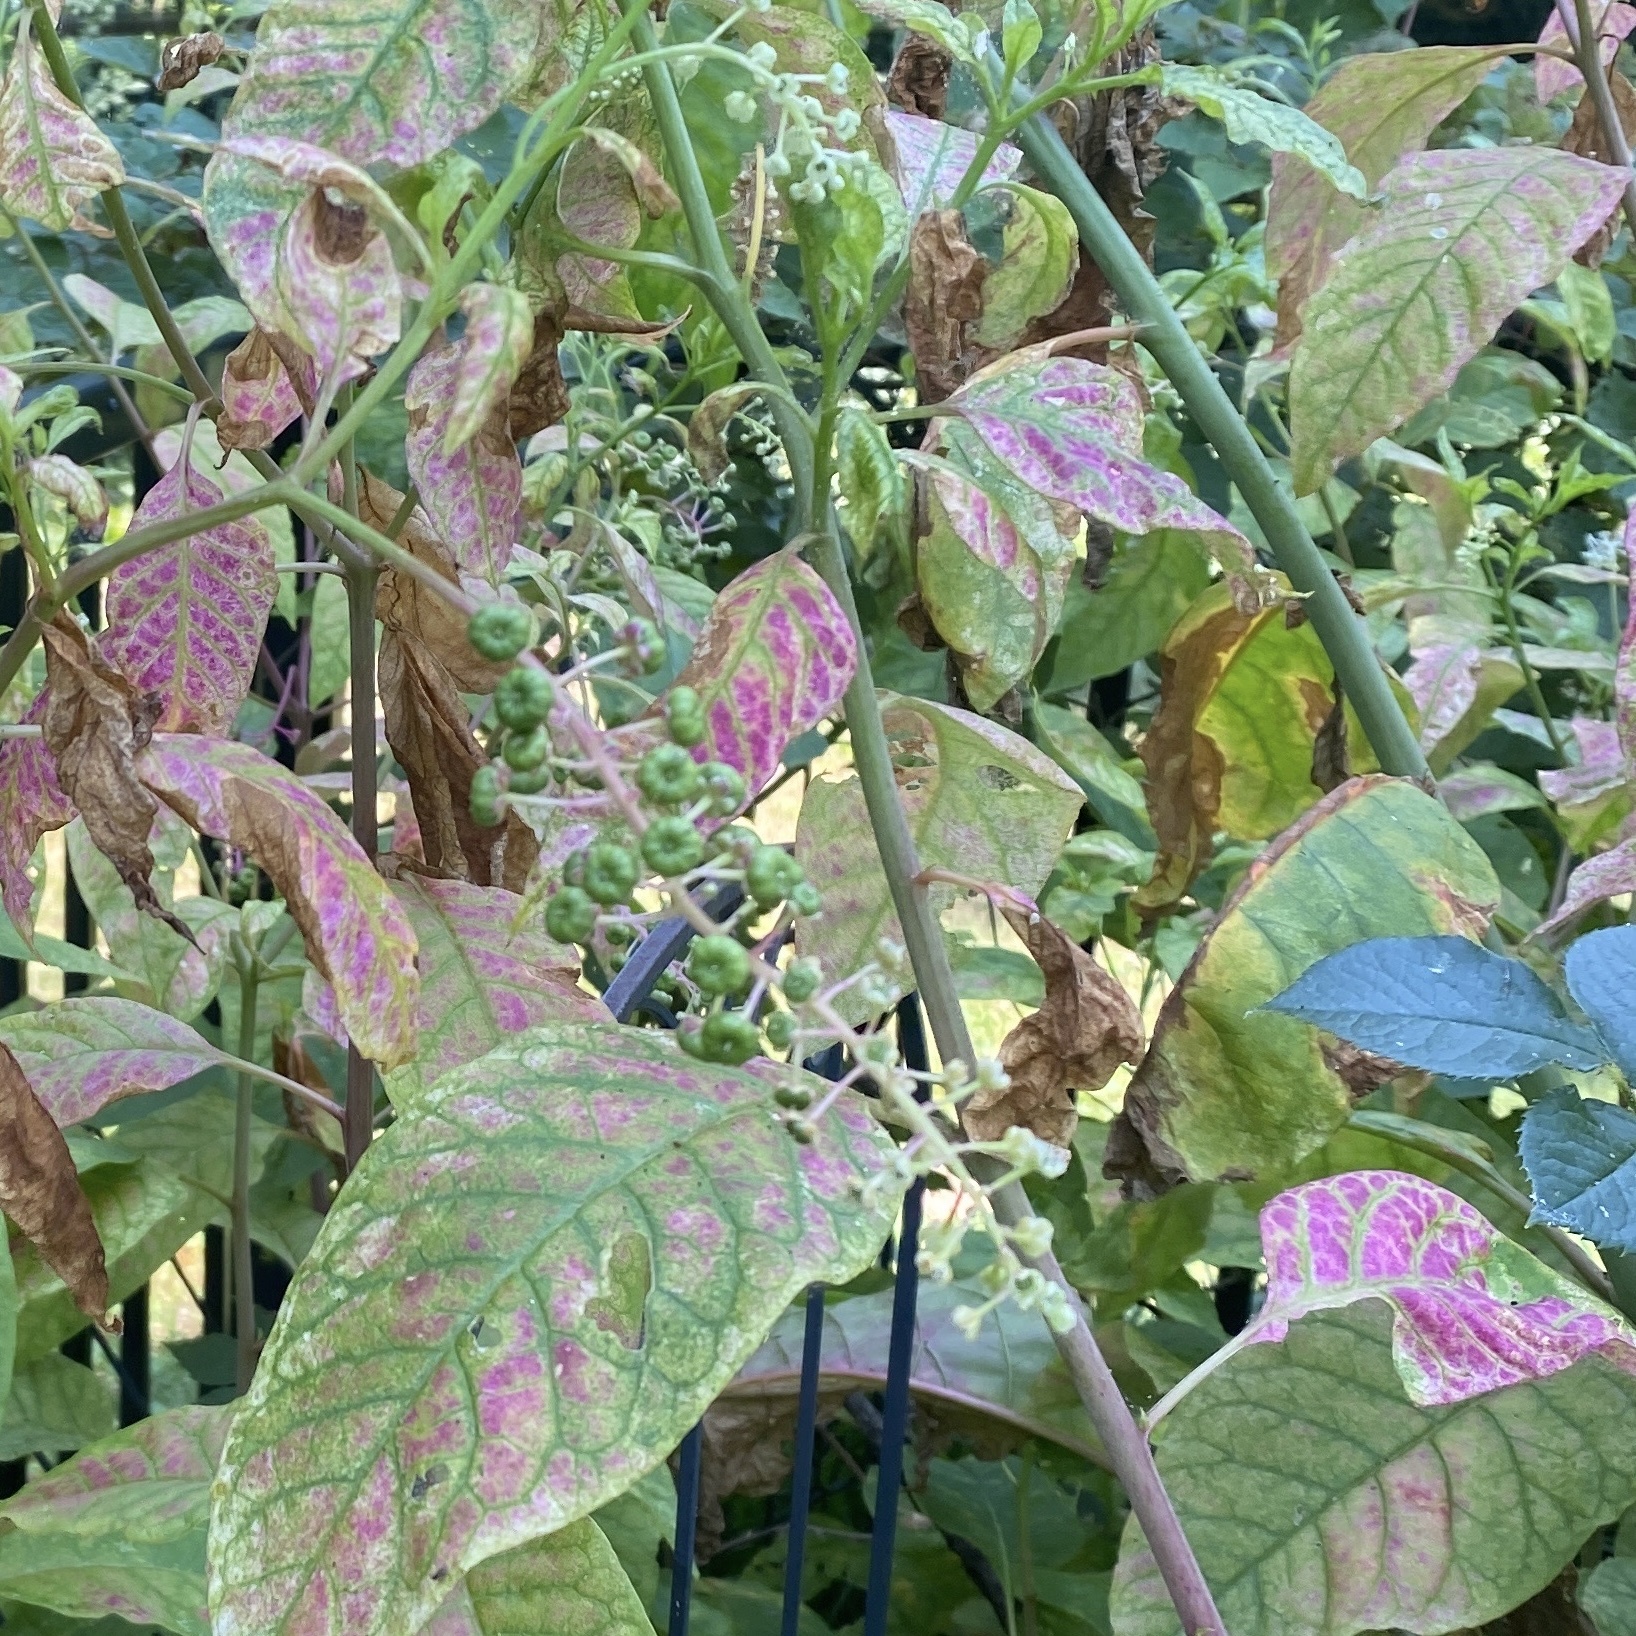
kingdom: Plantae
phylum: Tracheophyta
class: Magnoliopsida
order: Caryophyllales
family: Phytolaccaceae
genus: Phytolacca
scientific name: Phytolacca americana
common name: American pokeweed
